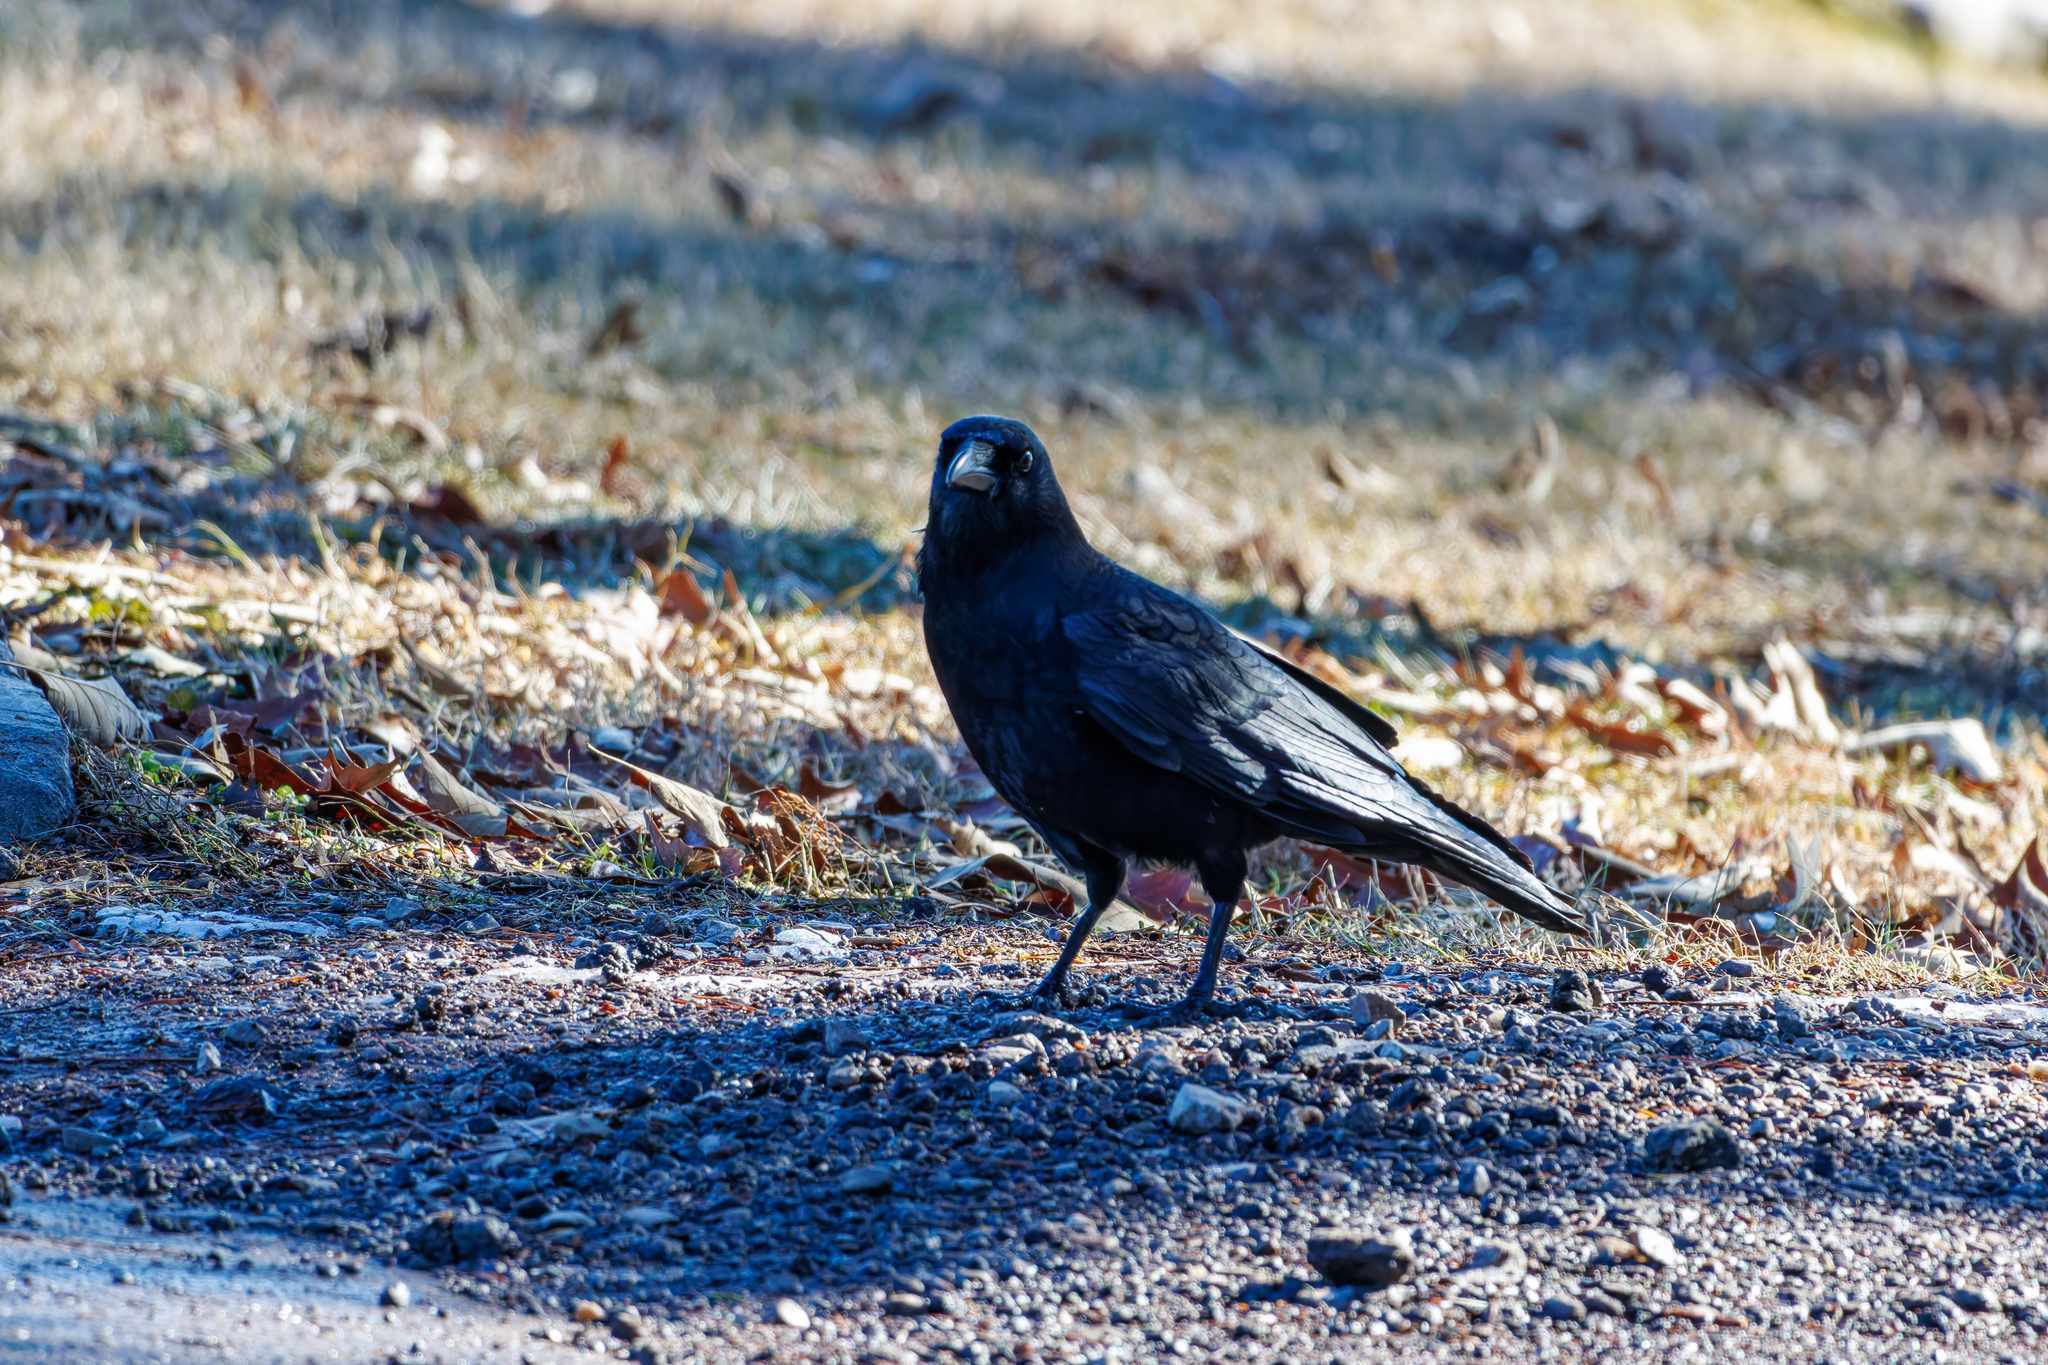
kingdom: Animalia
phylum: Chordata
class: Aves
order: Passeriformes
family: Corvidae
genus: Corvus
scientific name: Corvus brachyrhynchos
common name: American crow
